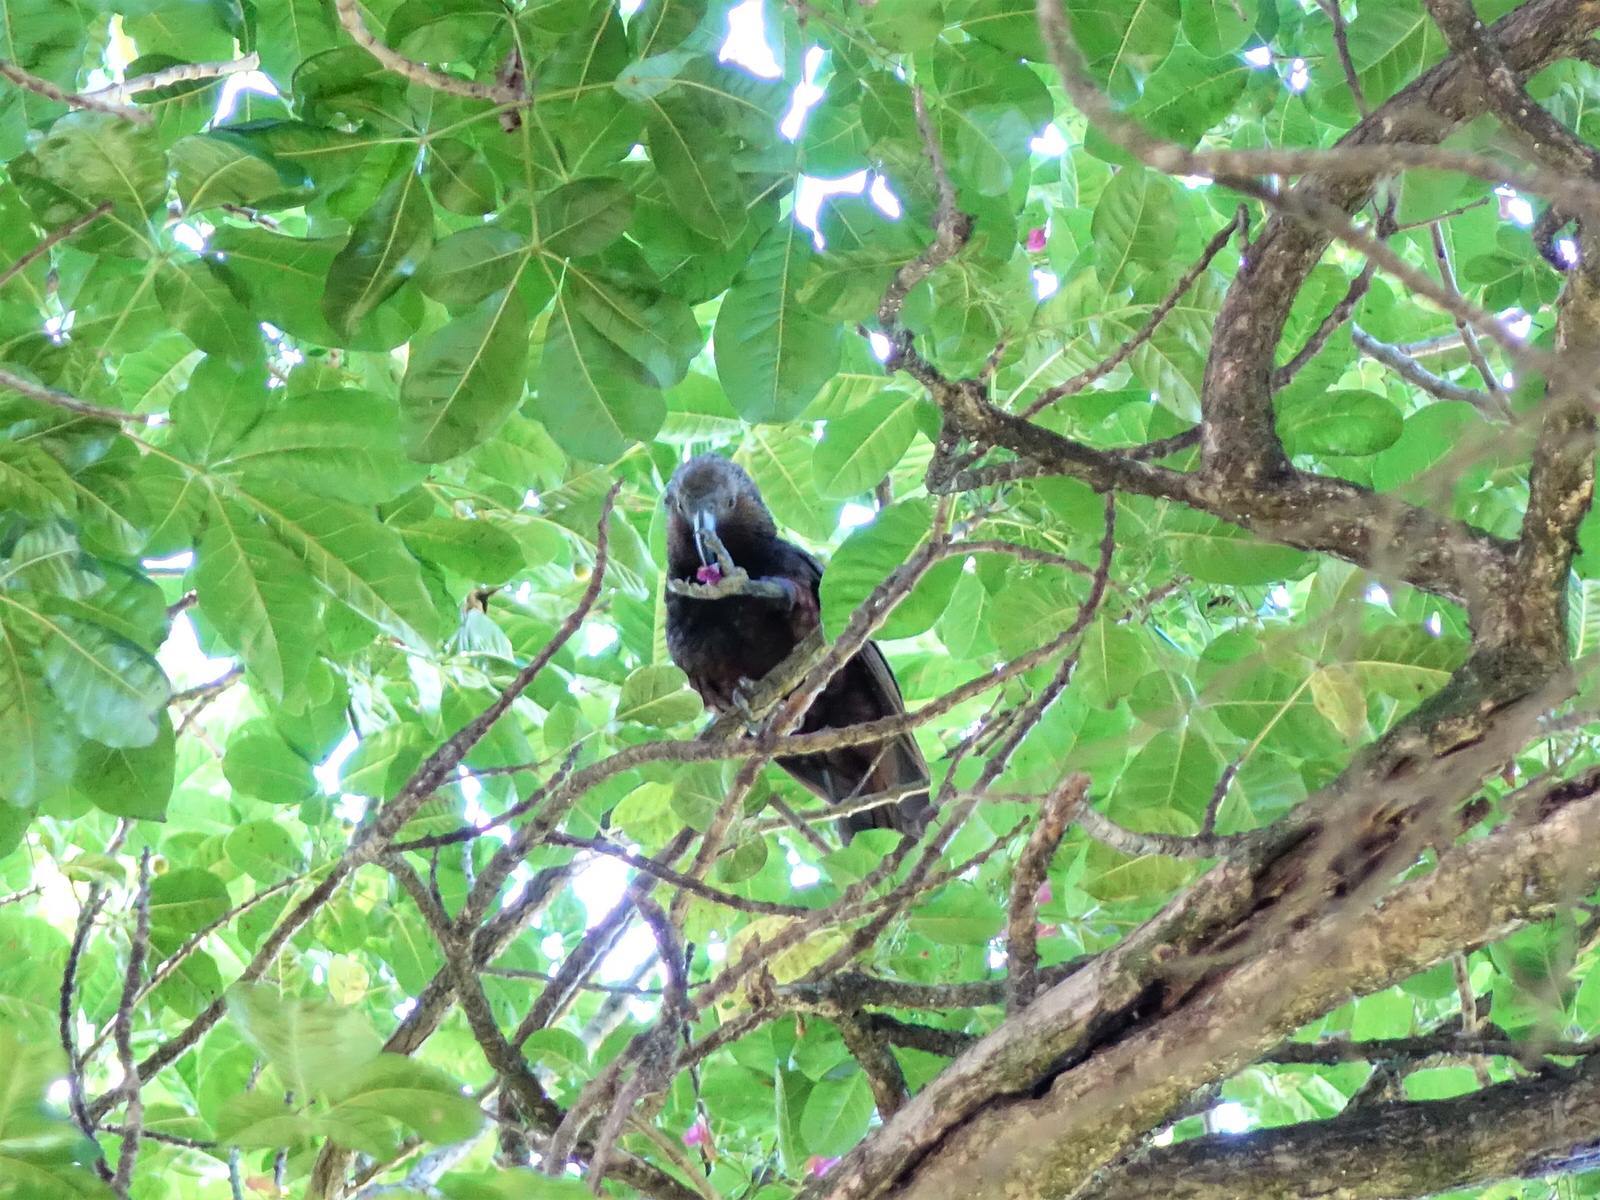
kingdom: Animalia
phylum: Chordata
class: Aves
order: Psittaciformes
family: Psittacidae
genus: Nestor
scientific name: Nestor meridionalis
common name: New zealand kaka
